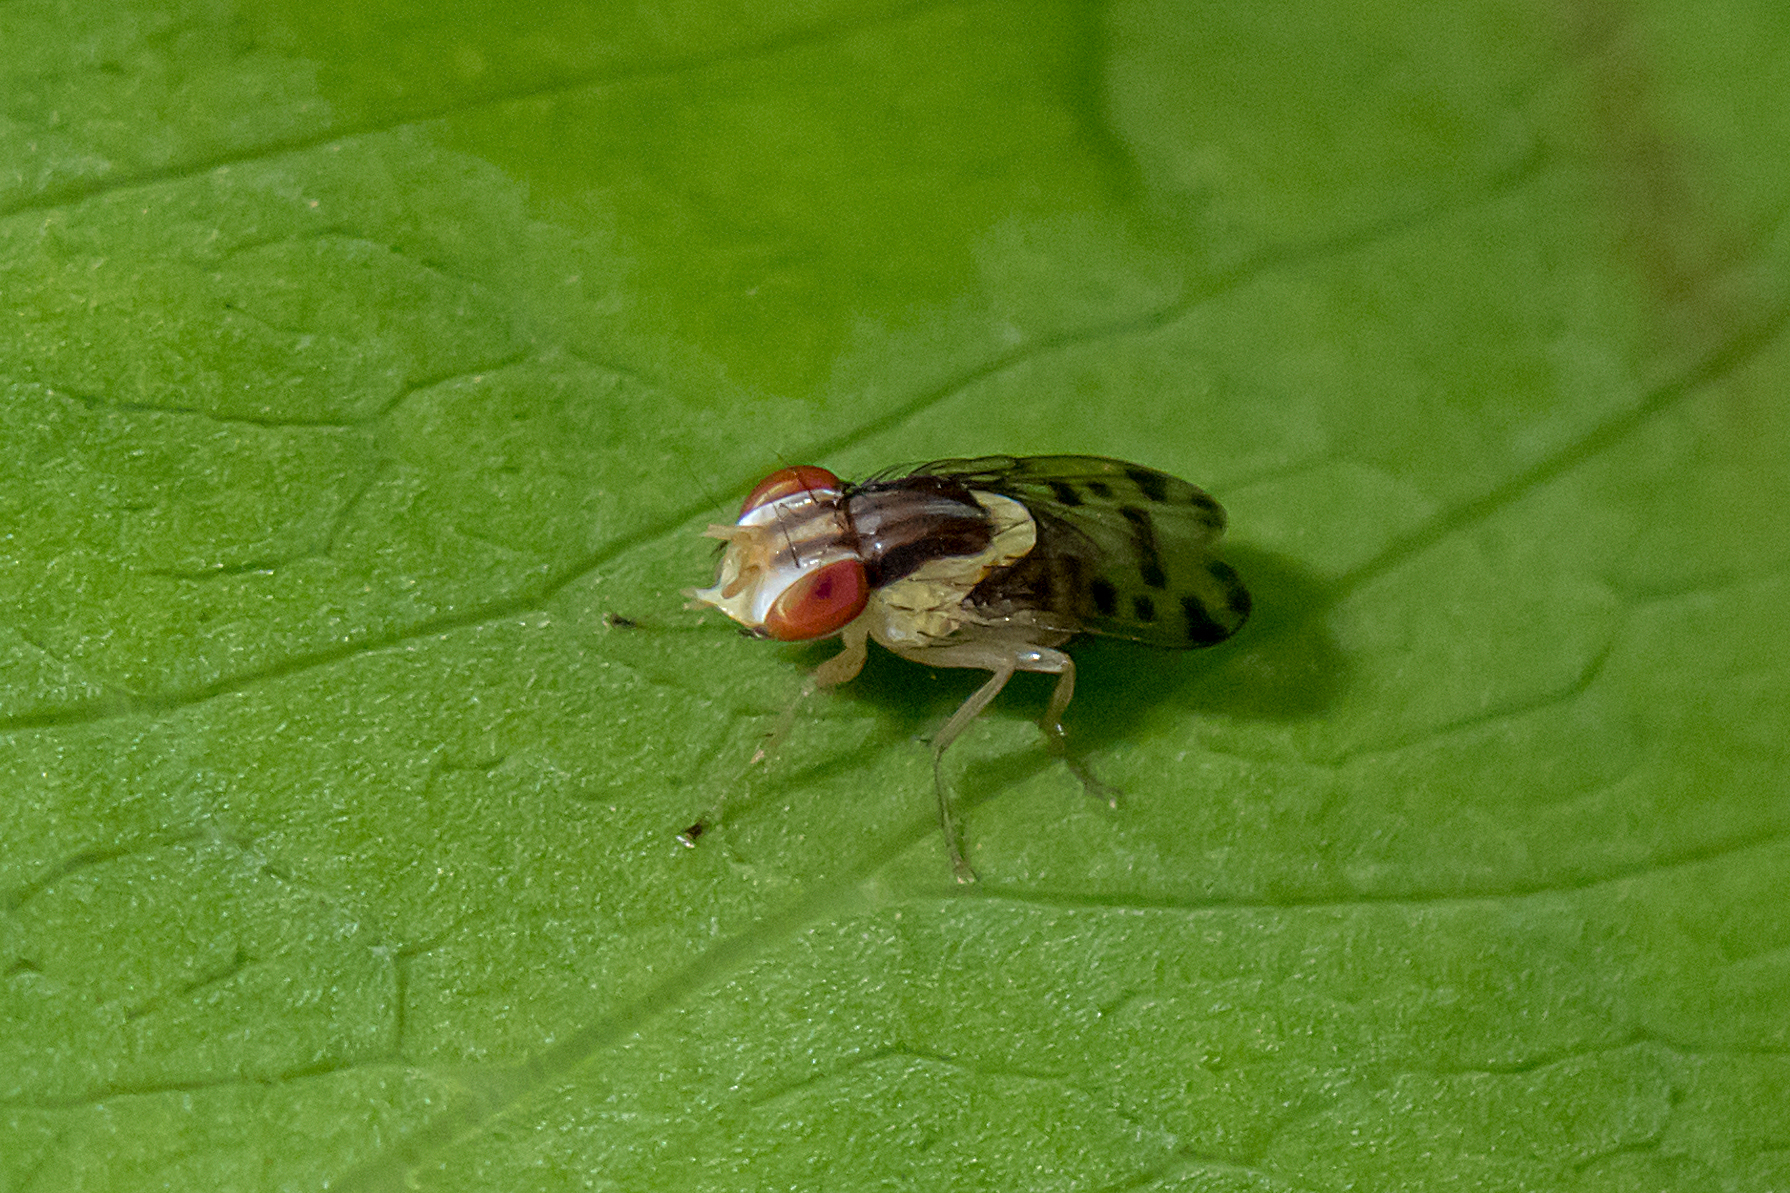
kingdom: Animalia
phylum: Arthropoda
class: Insecta
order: Diptera
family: Lauxaniidae
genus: Wawu
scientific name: Wawu queenslandensis
